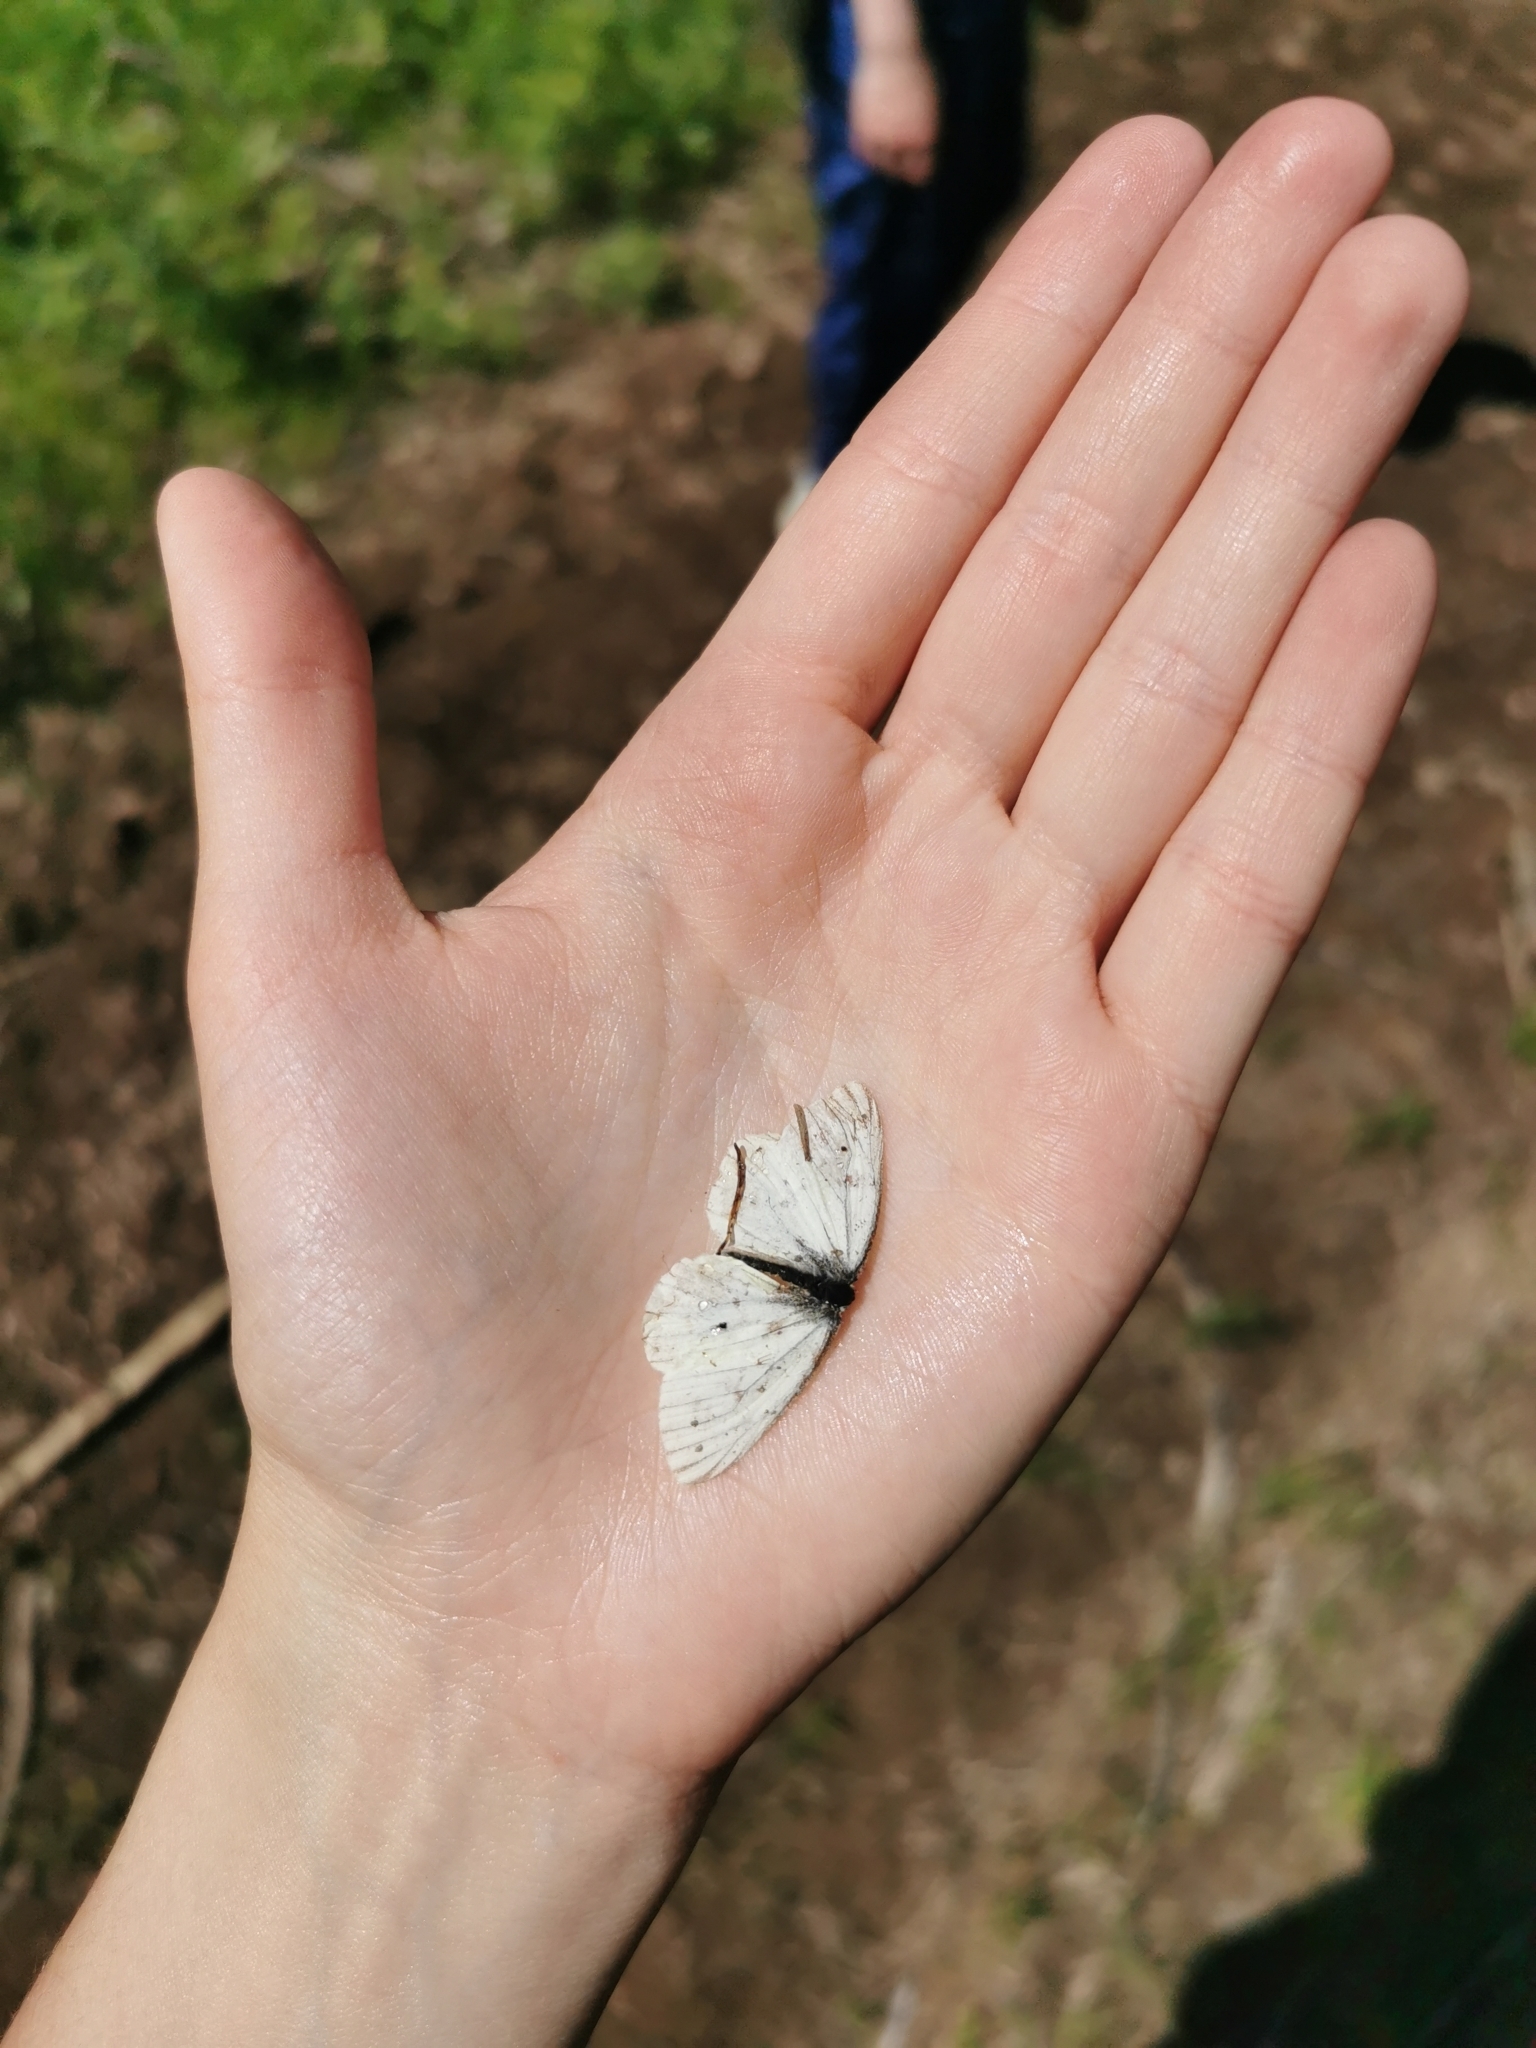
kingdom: Animalia
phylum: Arthropoda
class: Insecta
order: Lepidoptera
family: Pieridae
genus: Pieris
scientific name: Pieris napi
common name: Green-veined white
